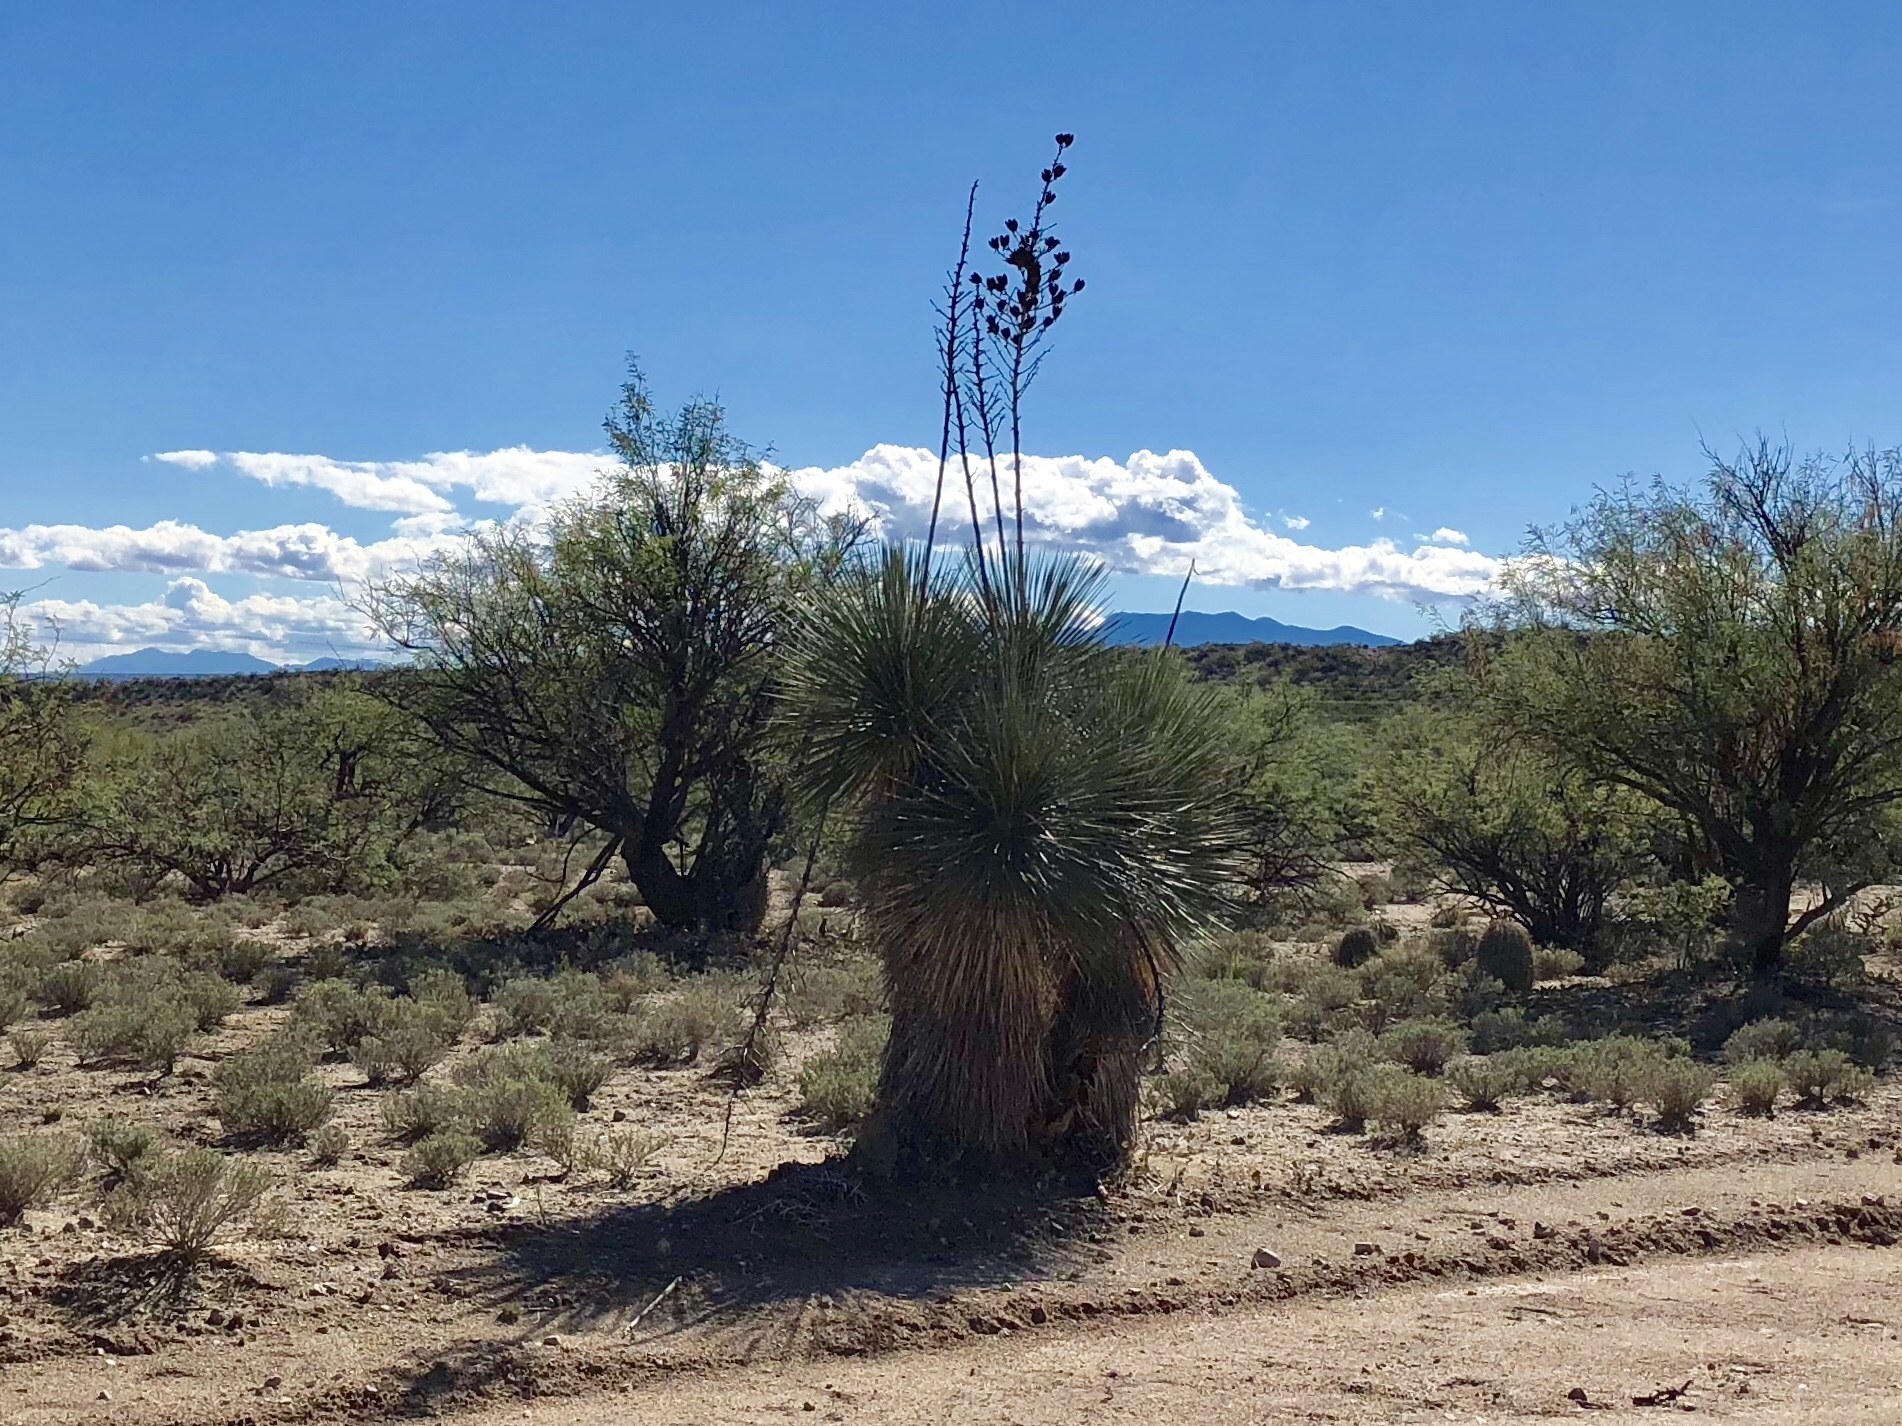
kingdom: Plantae
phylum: Tracheophyta
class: Liliopsida
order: Asparagales
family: Asparagaceae
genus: Yucca
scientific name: Yucca elata
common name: Palmella
